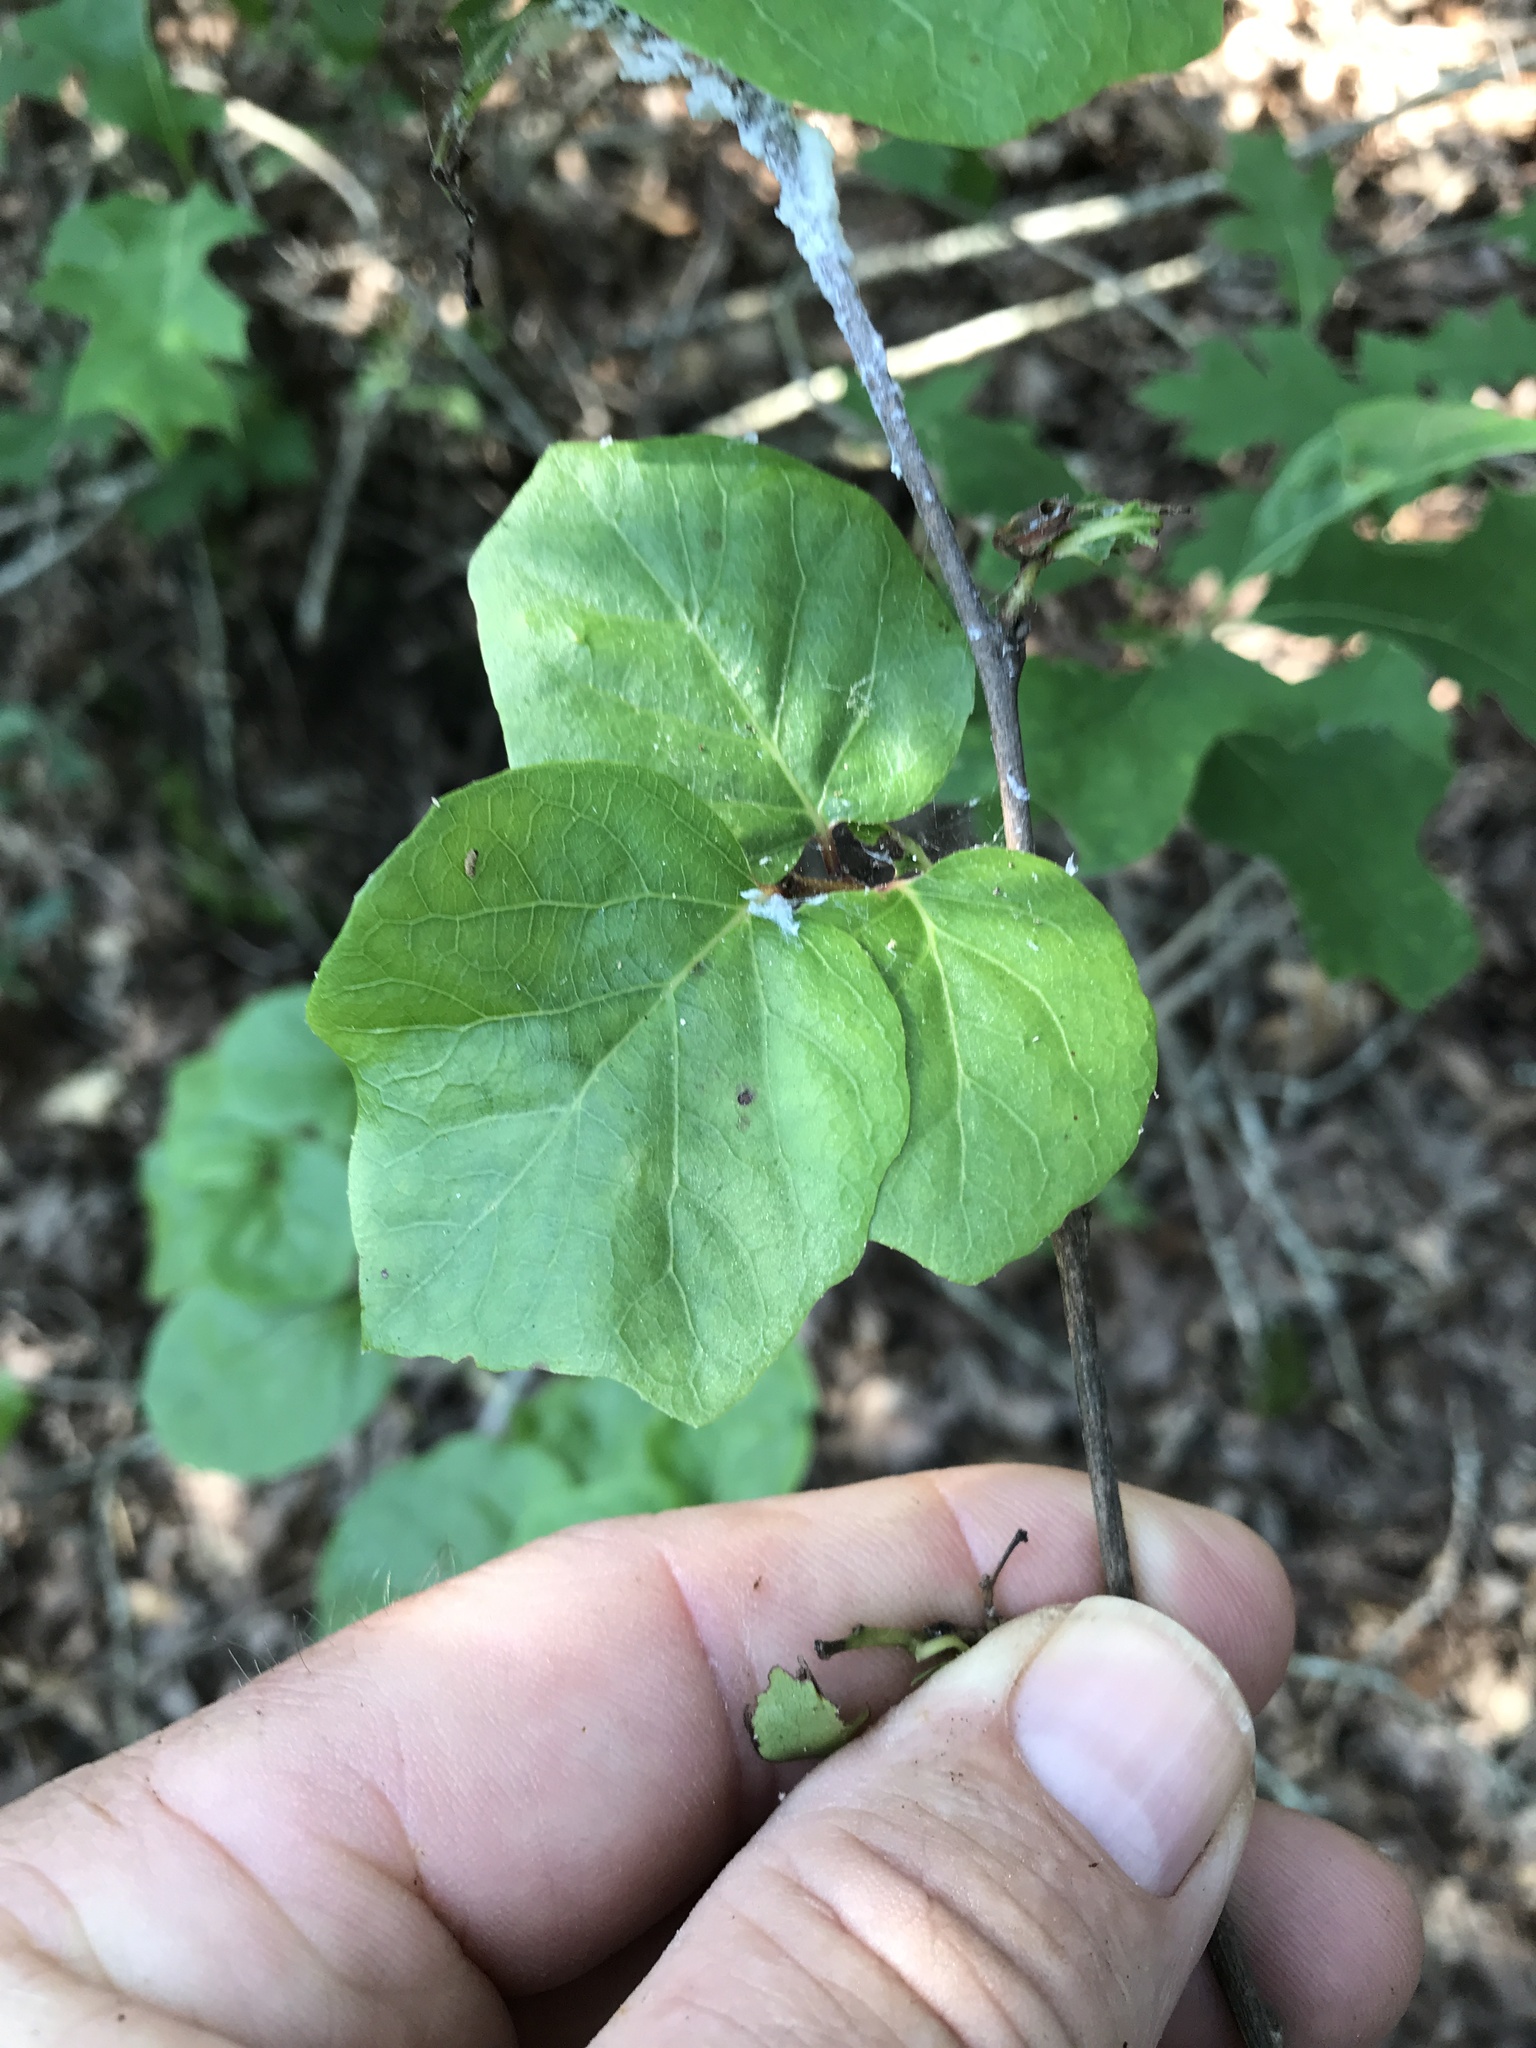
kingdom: Plantae
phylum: Tracheophyta
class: Magnoliopsida
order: Ericales
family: Styracaceae
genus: Styrax
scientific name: Styrax platanifolius
